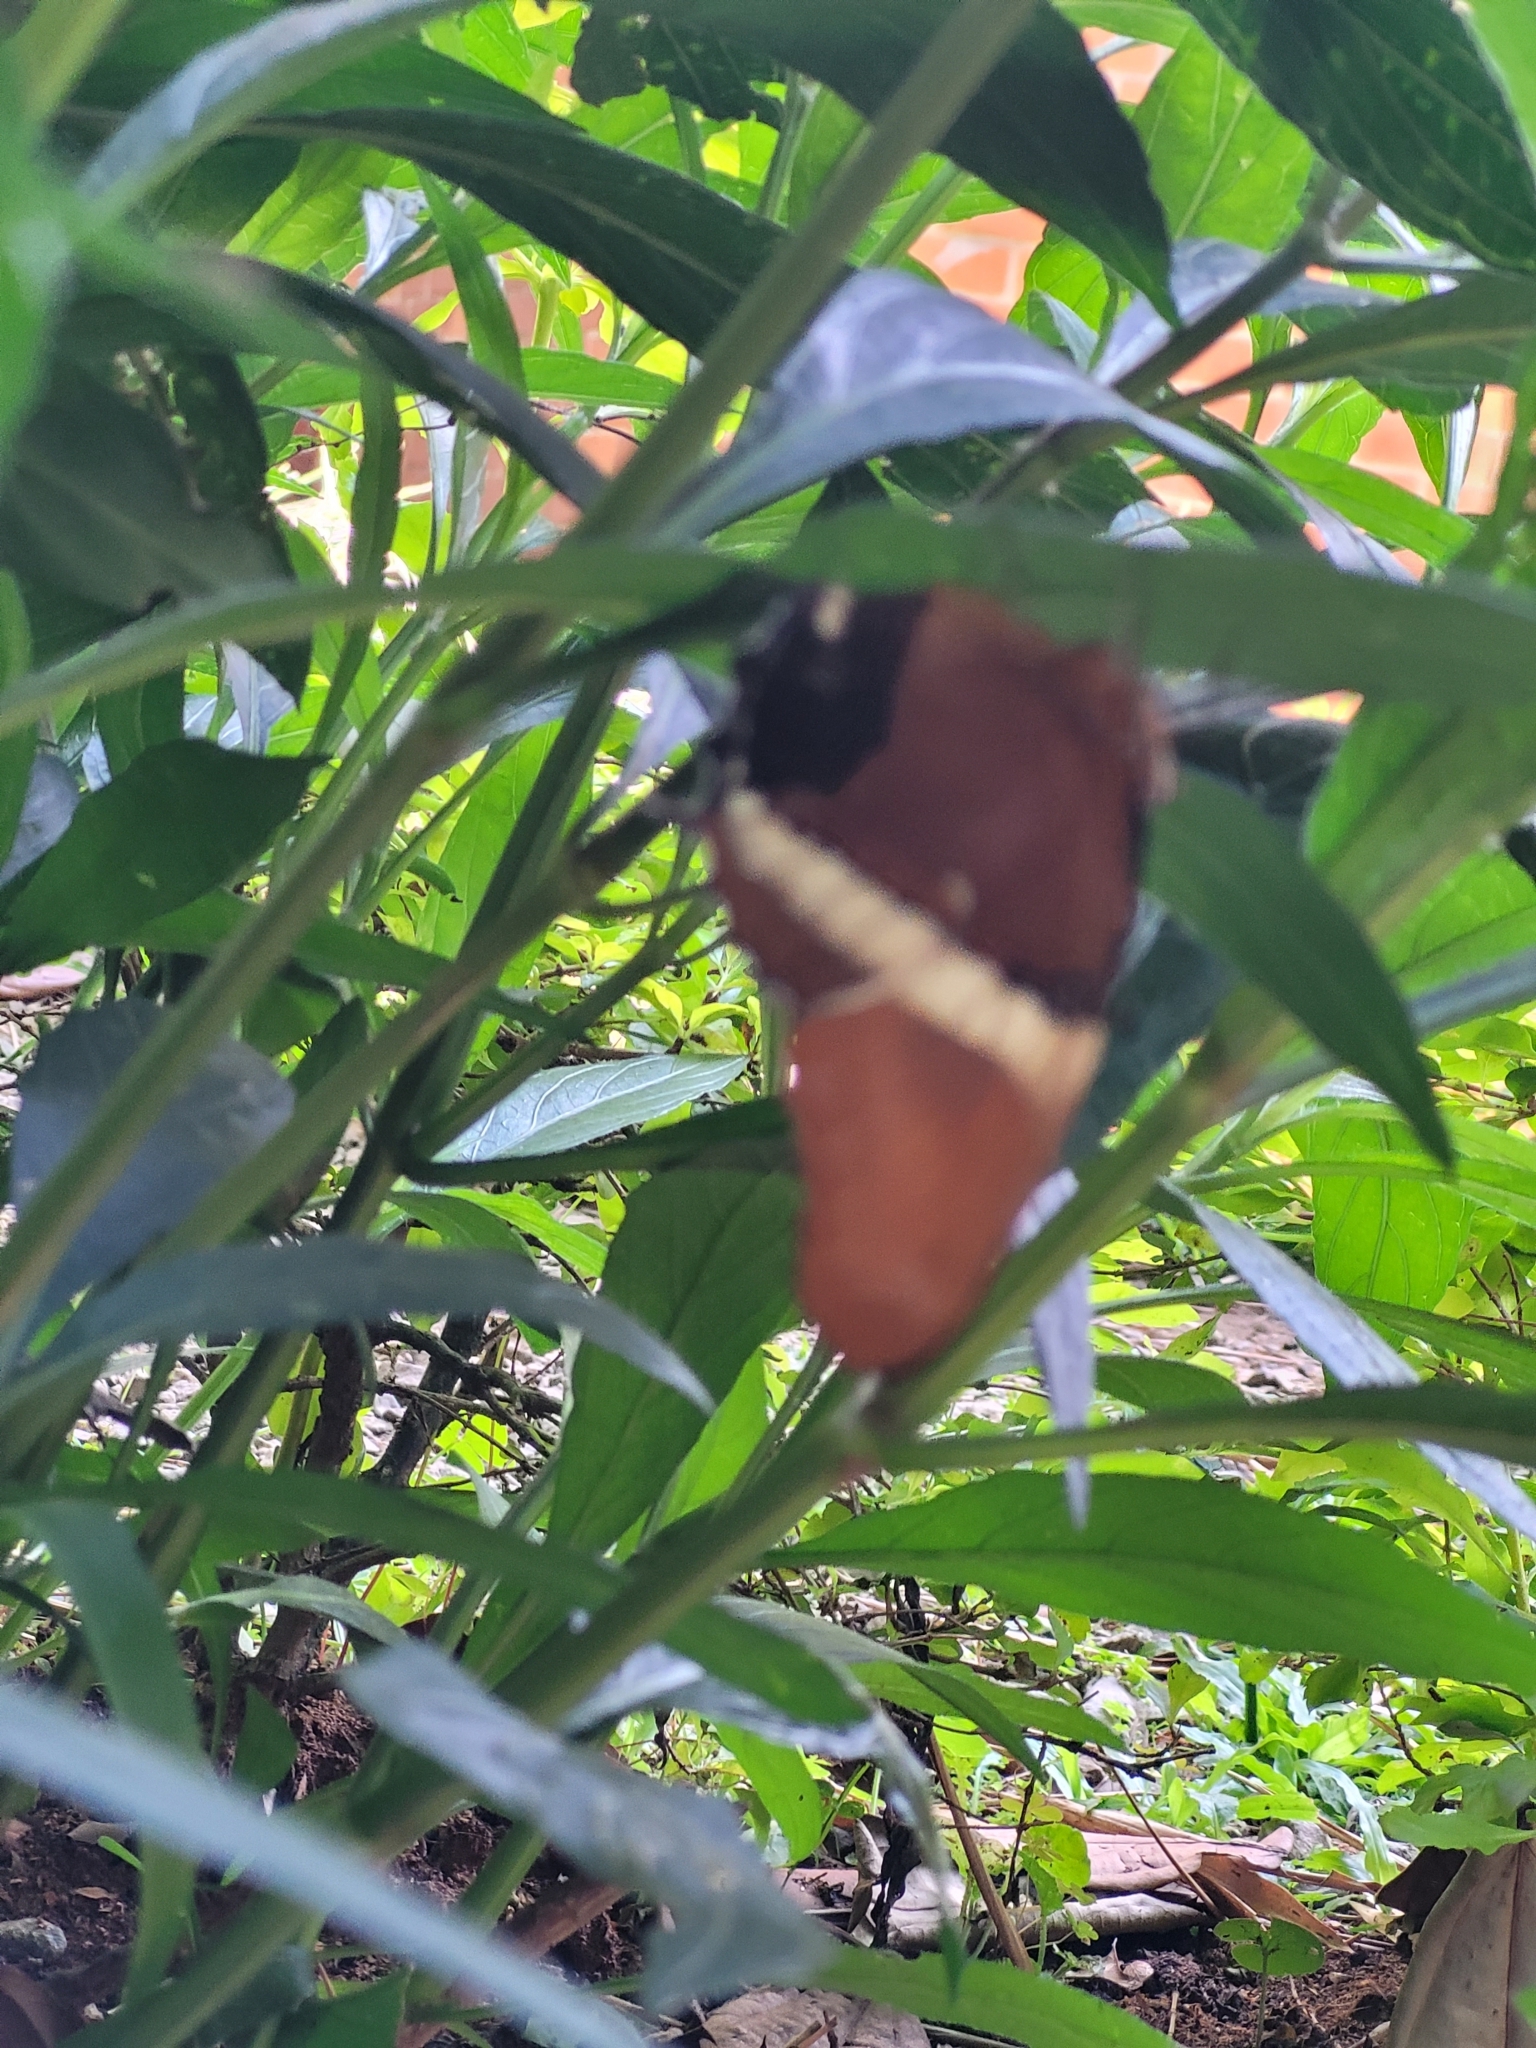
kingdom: Animalia
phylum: Arthropoda
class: Insecta
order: Lepidoptera
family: Nymphalidae
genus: Siproeta
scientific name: Siproeta epaphus
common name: Rusty-tipped page
